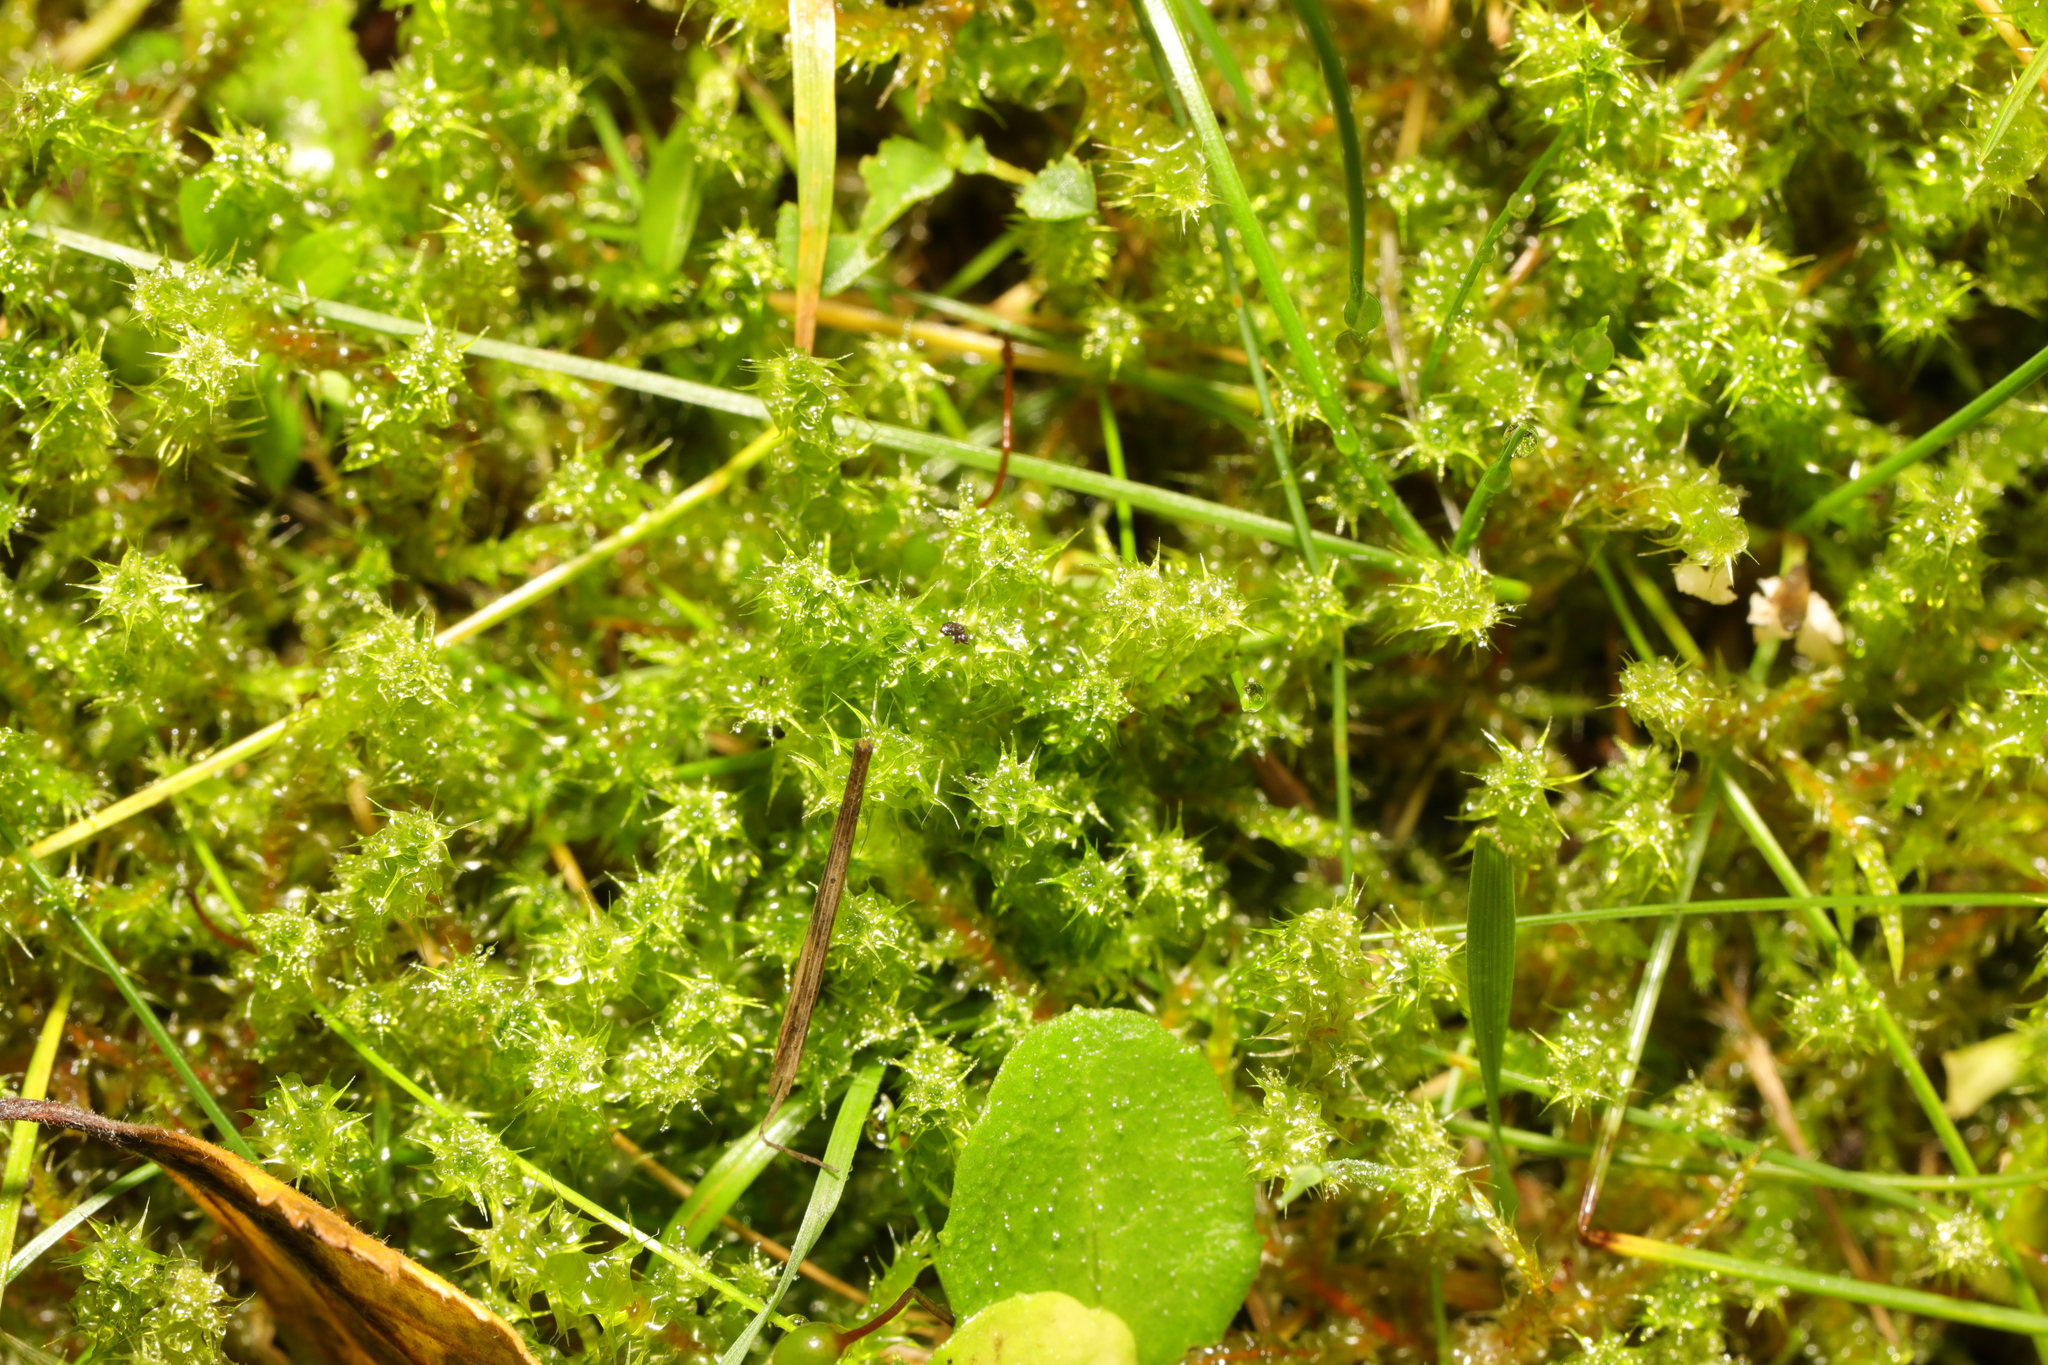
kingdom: Plantae
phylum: Bryophyta
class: Bryopsida
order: Hypnales
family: Hylocomiaceae
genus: Rhytidiadelphus
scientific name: Rhytidiadelphus squarrosus
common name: Springy turf-moss
